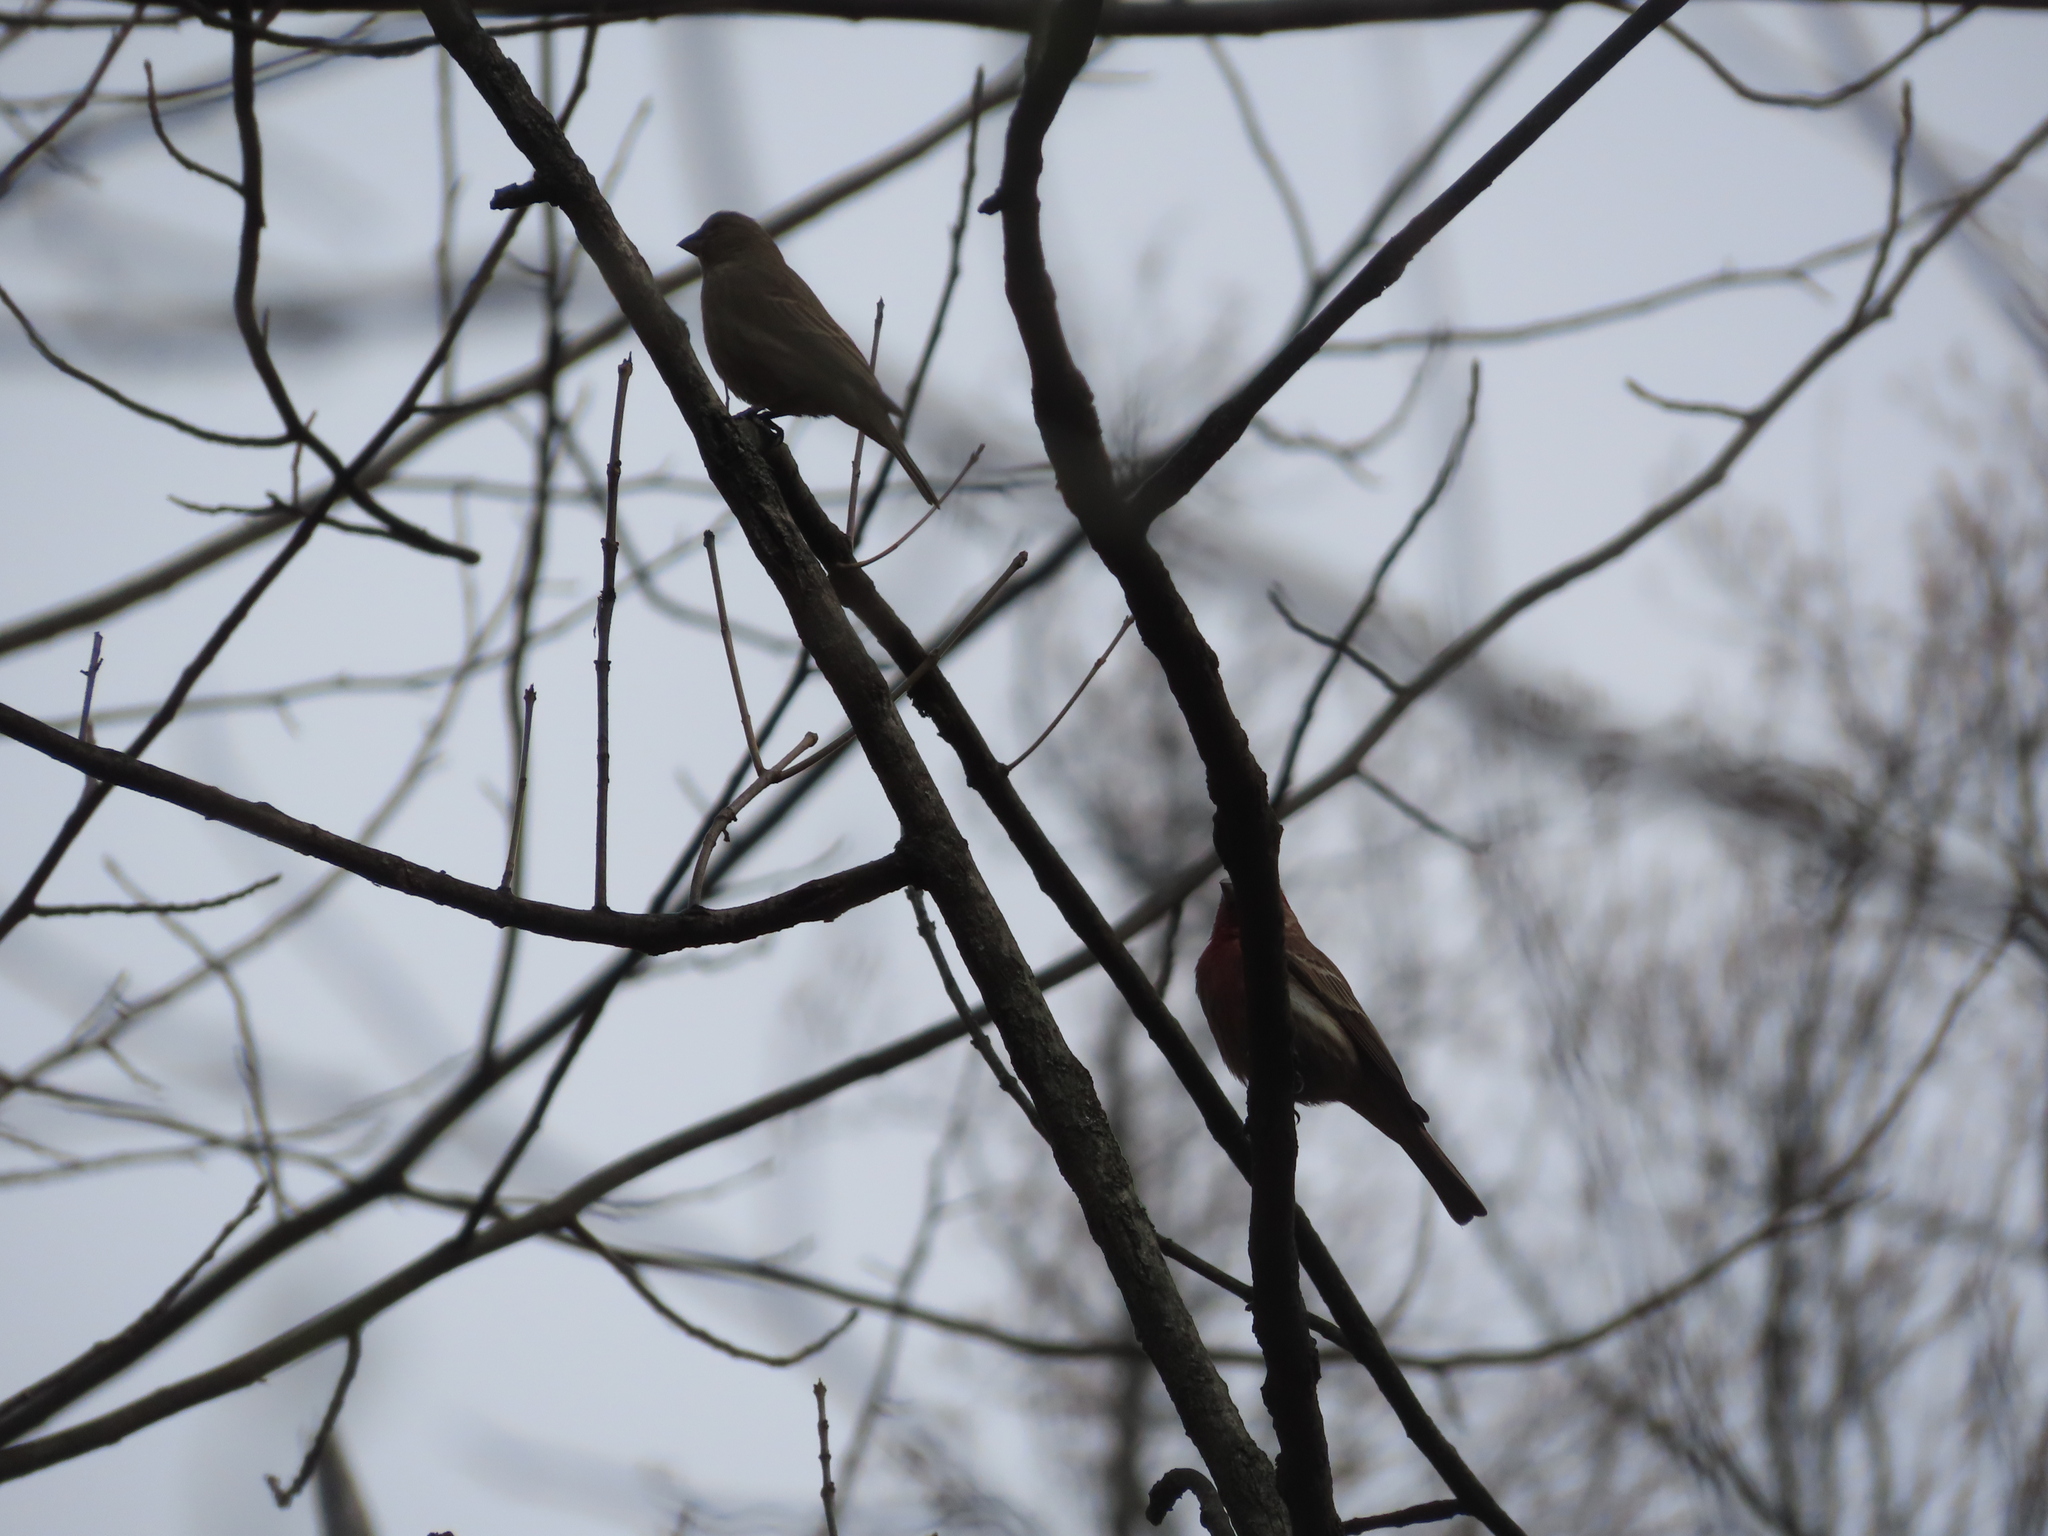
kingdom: Animalia
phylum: Chordata
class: Aves
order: Passeriformes
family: Fringillidae
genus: Haemorhous
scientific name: Haemorhous mexicanus
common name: House finch
